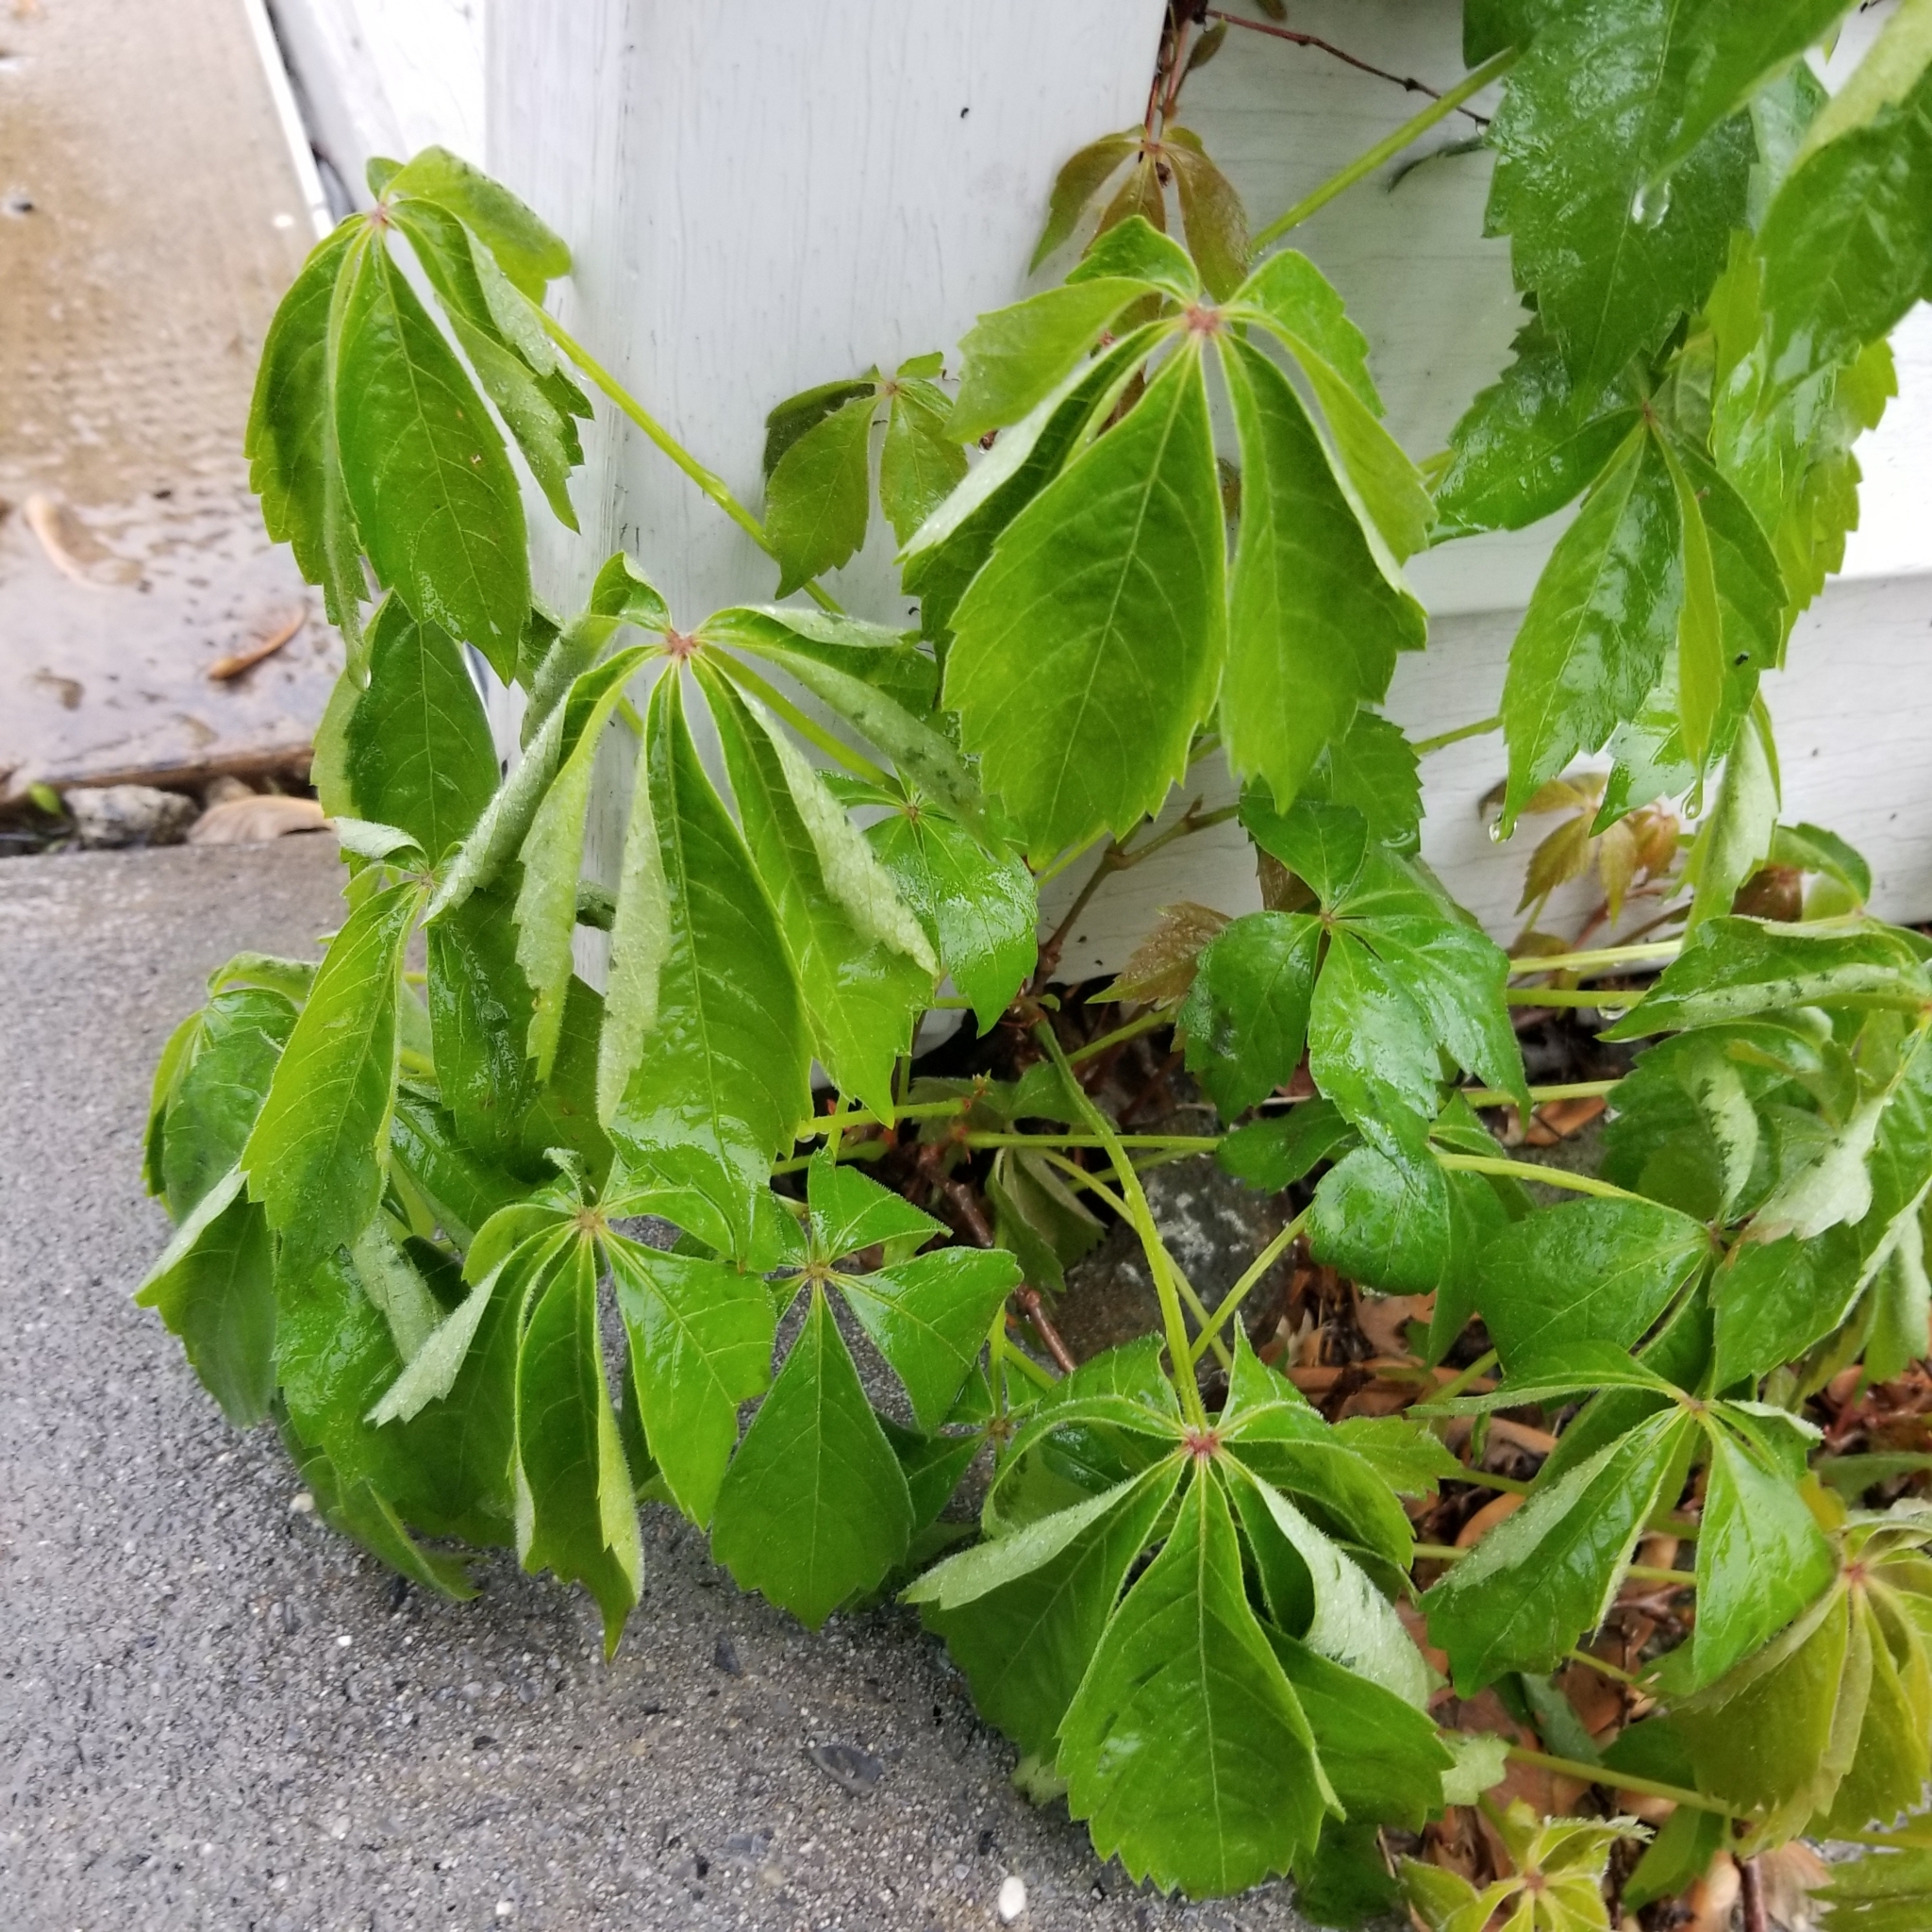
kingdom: Plantae
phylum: Tracheophyta
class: Magnoliopsida
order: Vitales
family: Vitaceae
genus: Parthenocissus
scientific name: Parthenocissus quinquefolia
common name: Virginia-creeper
